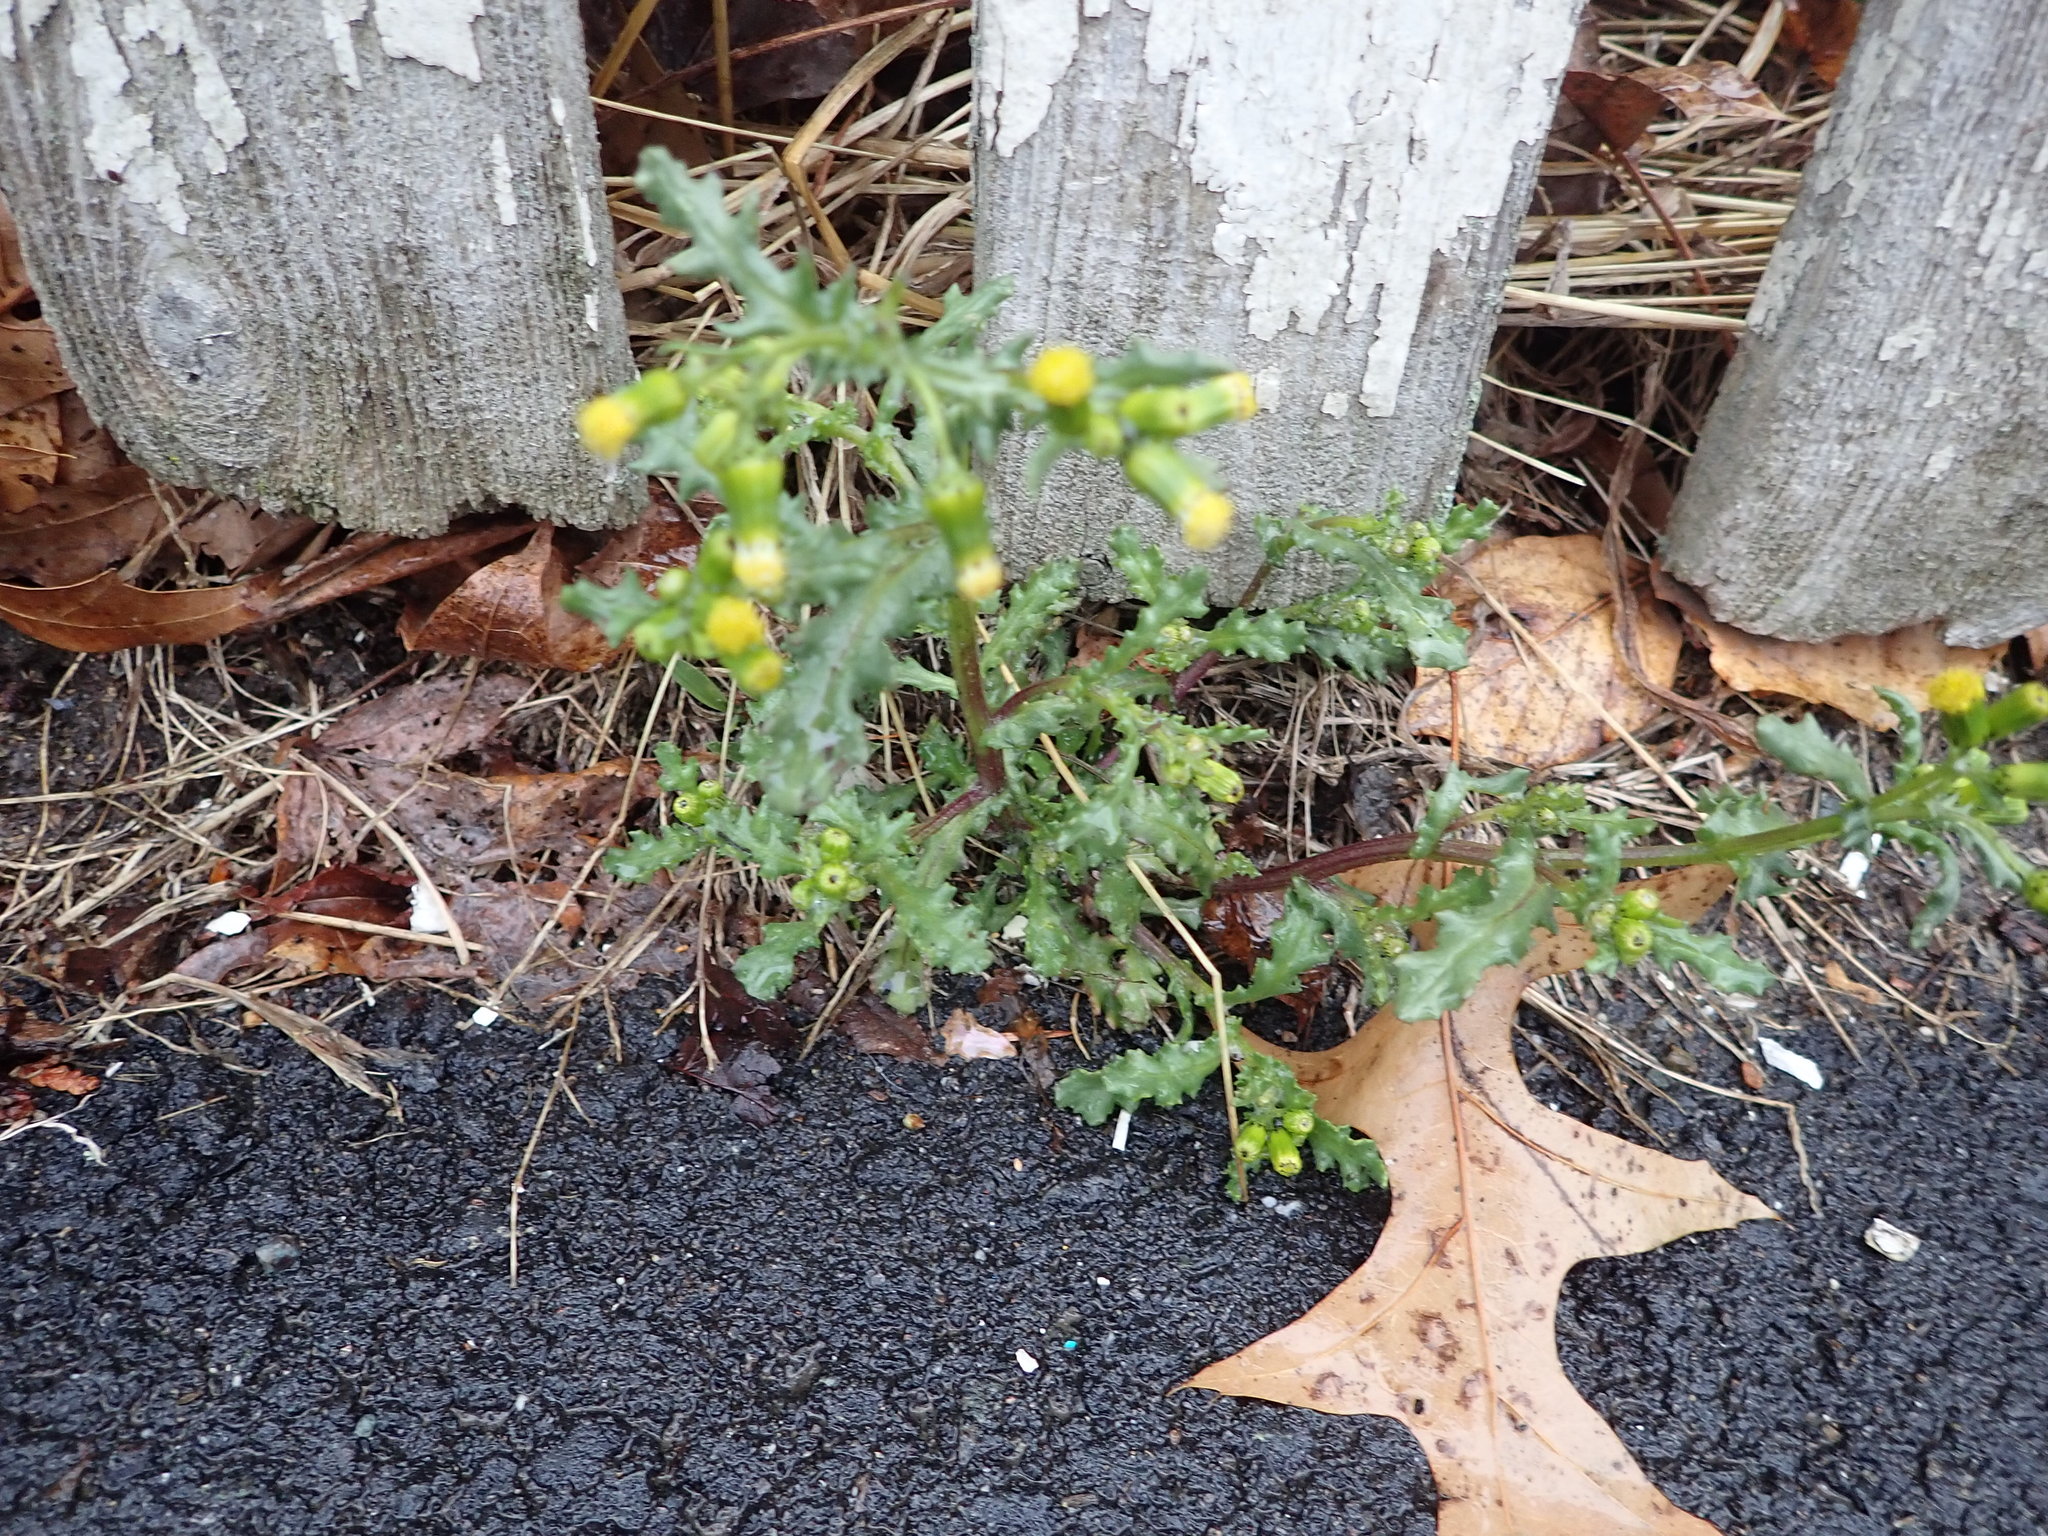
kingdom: Plantae
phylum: Tracheophyta
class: Magnoliopsida
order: Asterales
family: Asteraceae
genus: Senecio
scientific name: Senecio vulgaris
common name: Old-man-in-the-spring
